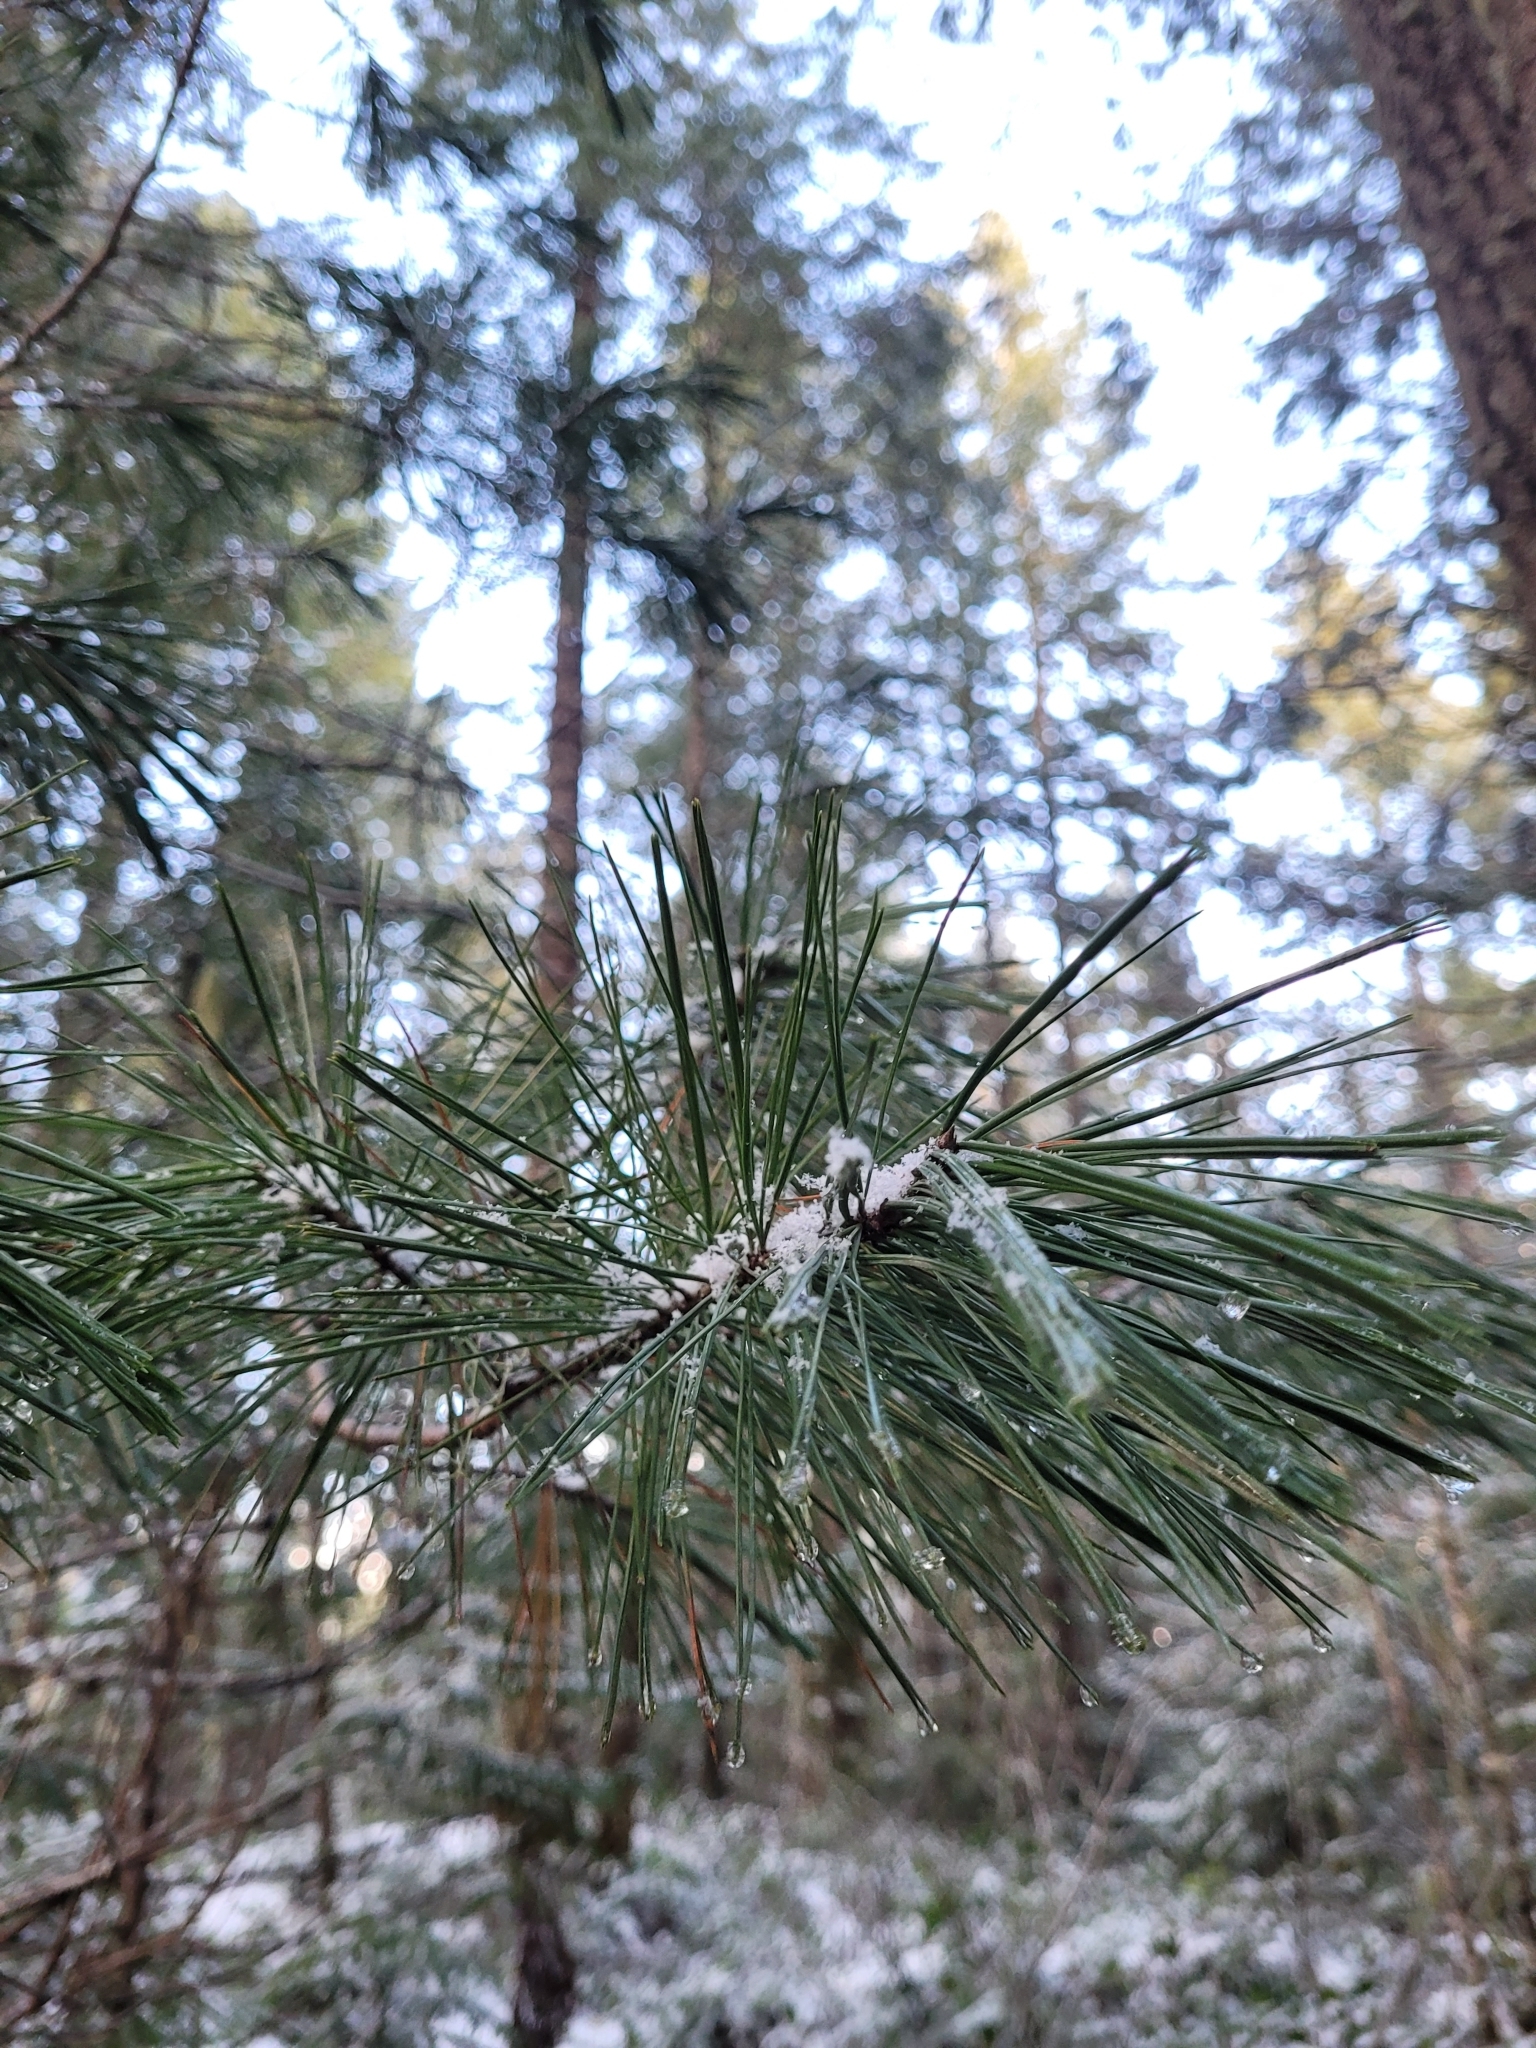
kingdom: Plantae
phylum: Tracheophyta
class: Pinopsida
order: Pinales
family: Pinaceae
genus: Pinus
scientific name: Pinus monticola
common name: Western white pine
